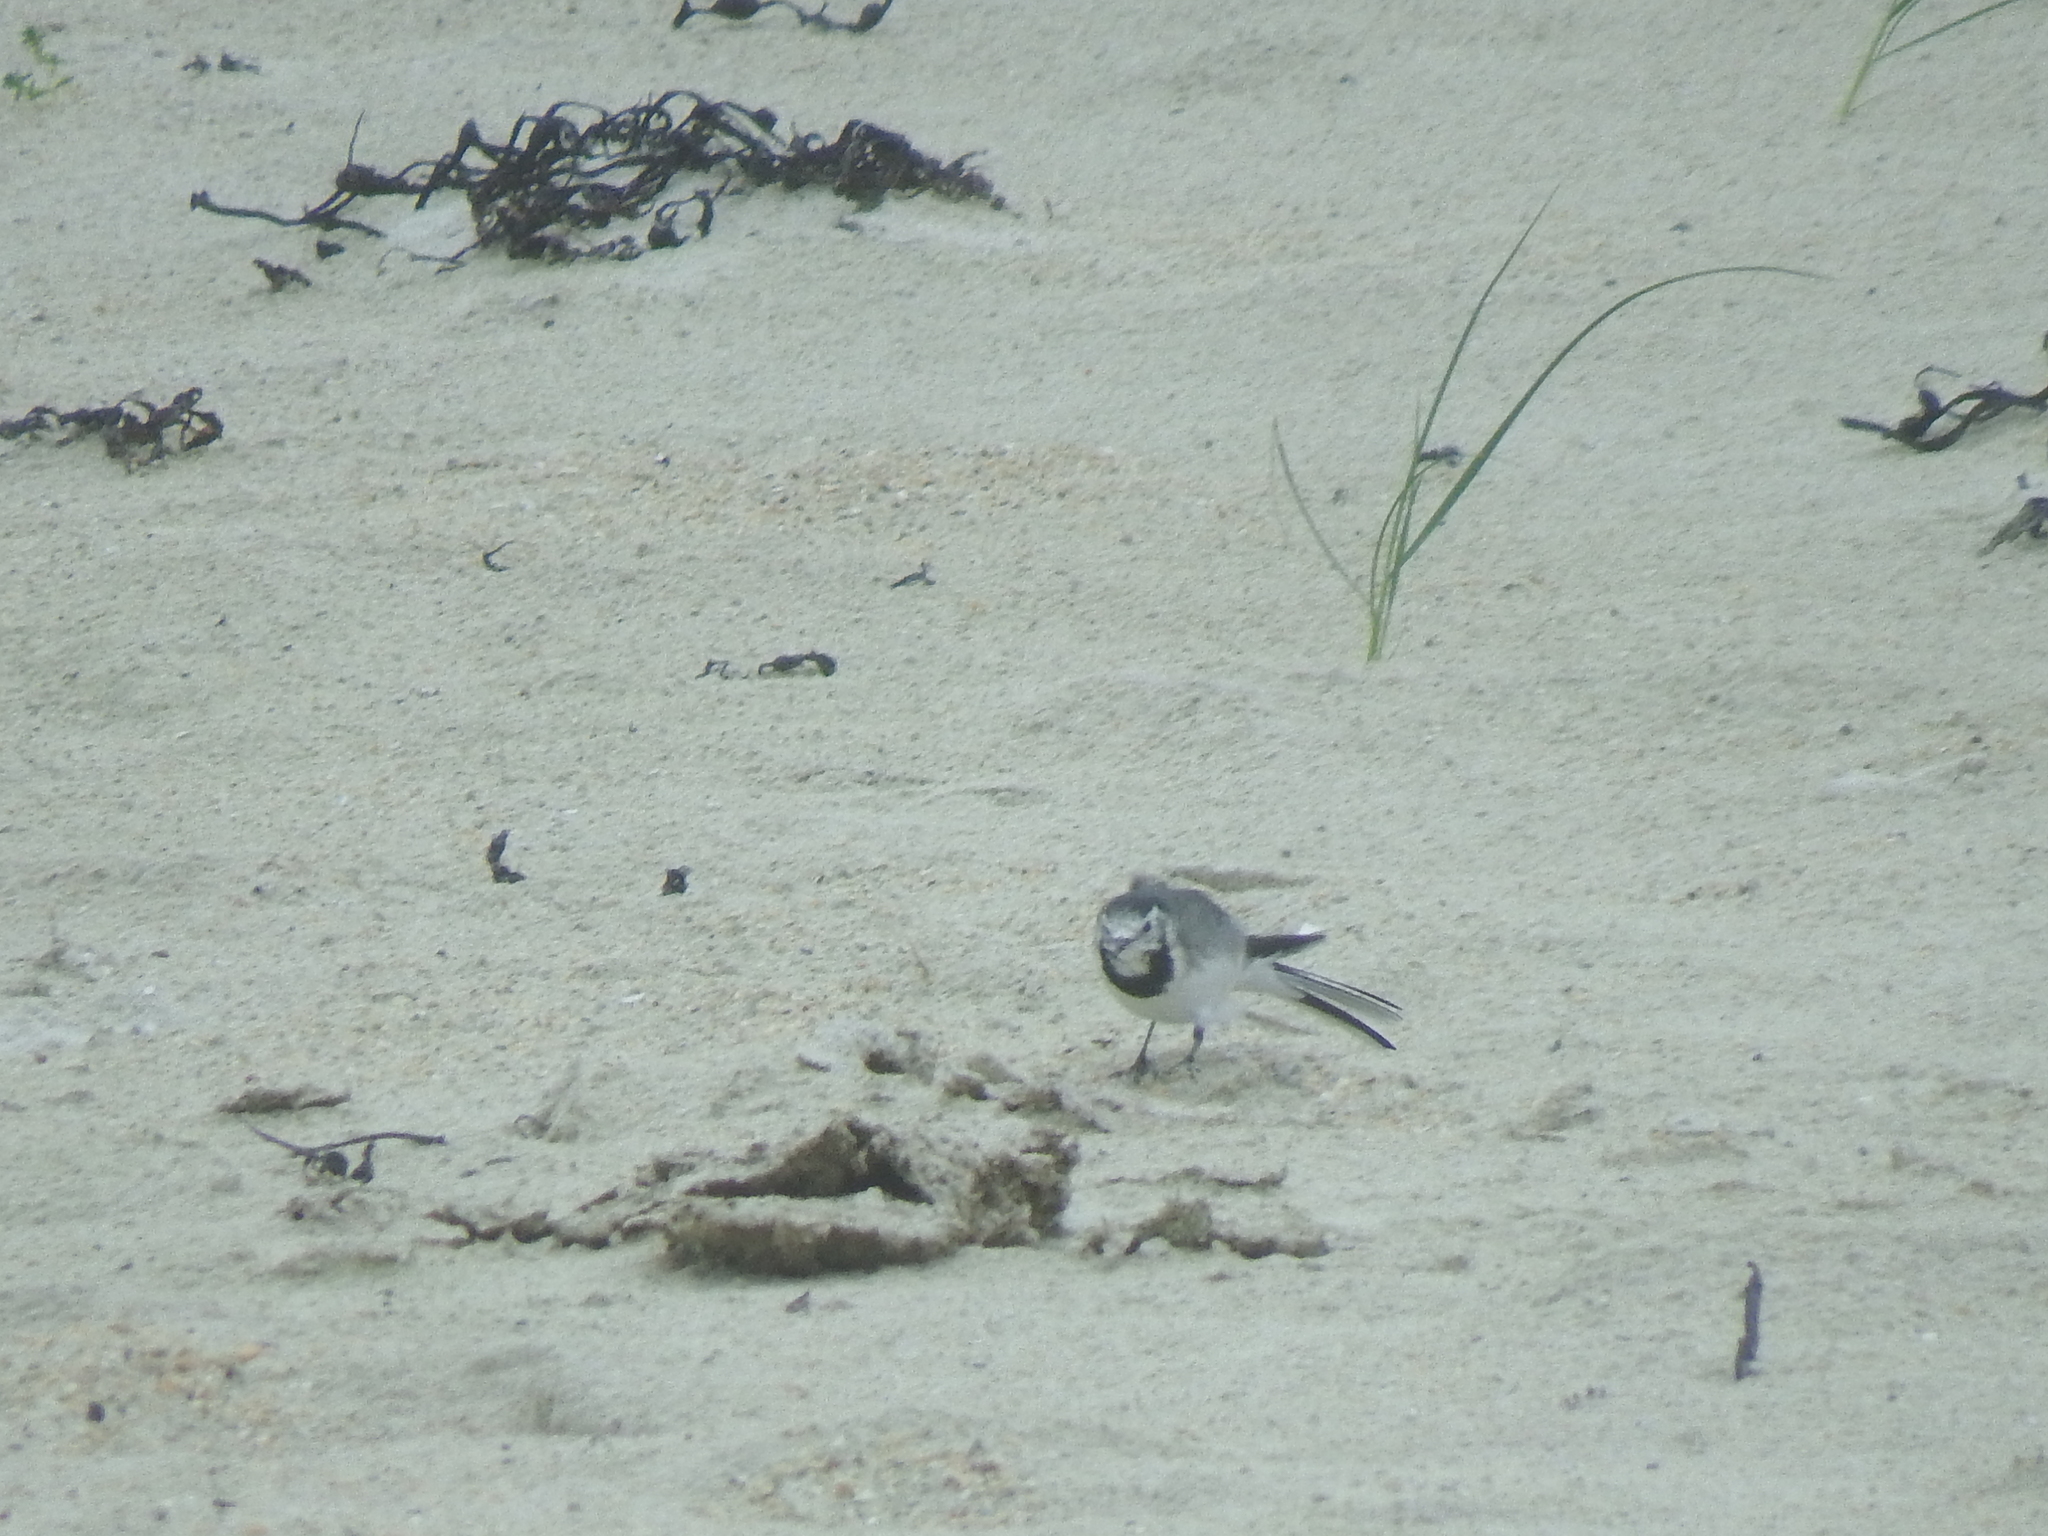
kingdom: Animalia
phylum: Chordata
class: Aves
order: Passeriformes
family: Motacillidae
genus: Motacilla
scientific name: Motacilla alba
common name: White wagtail
